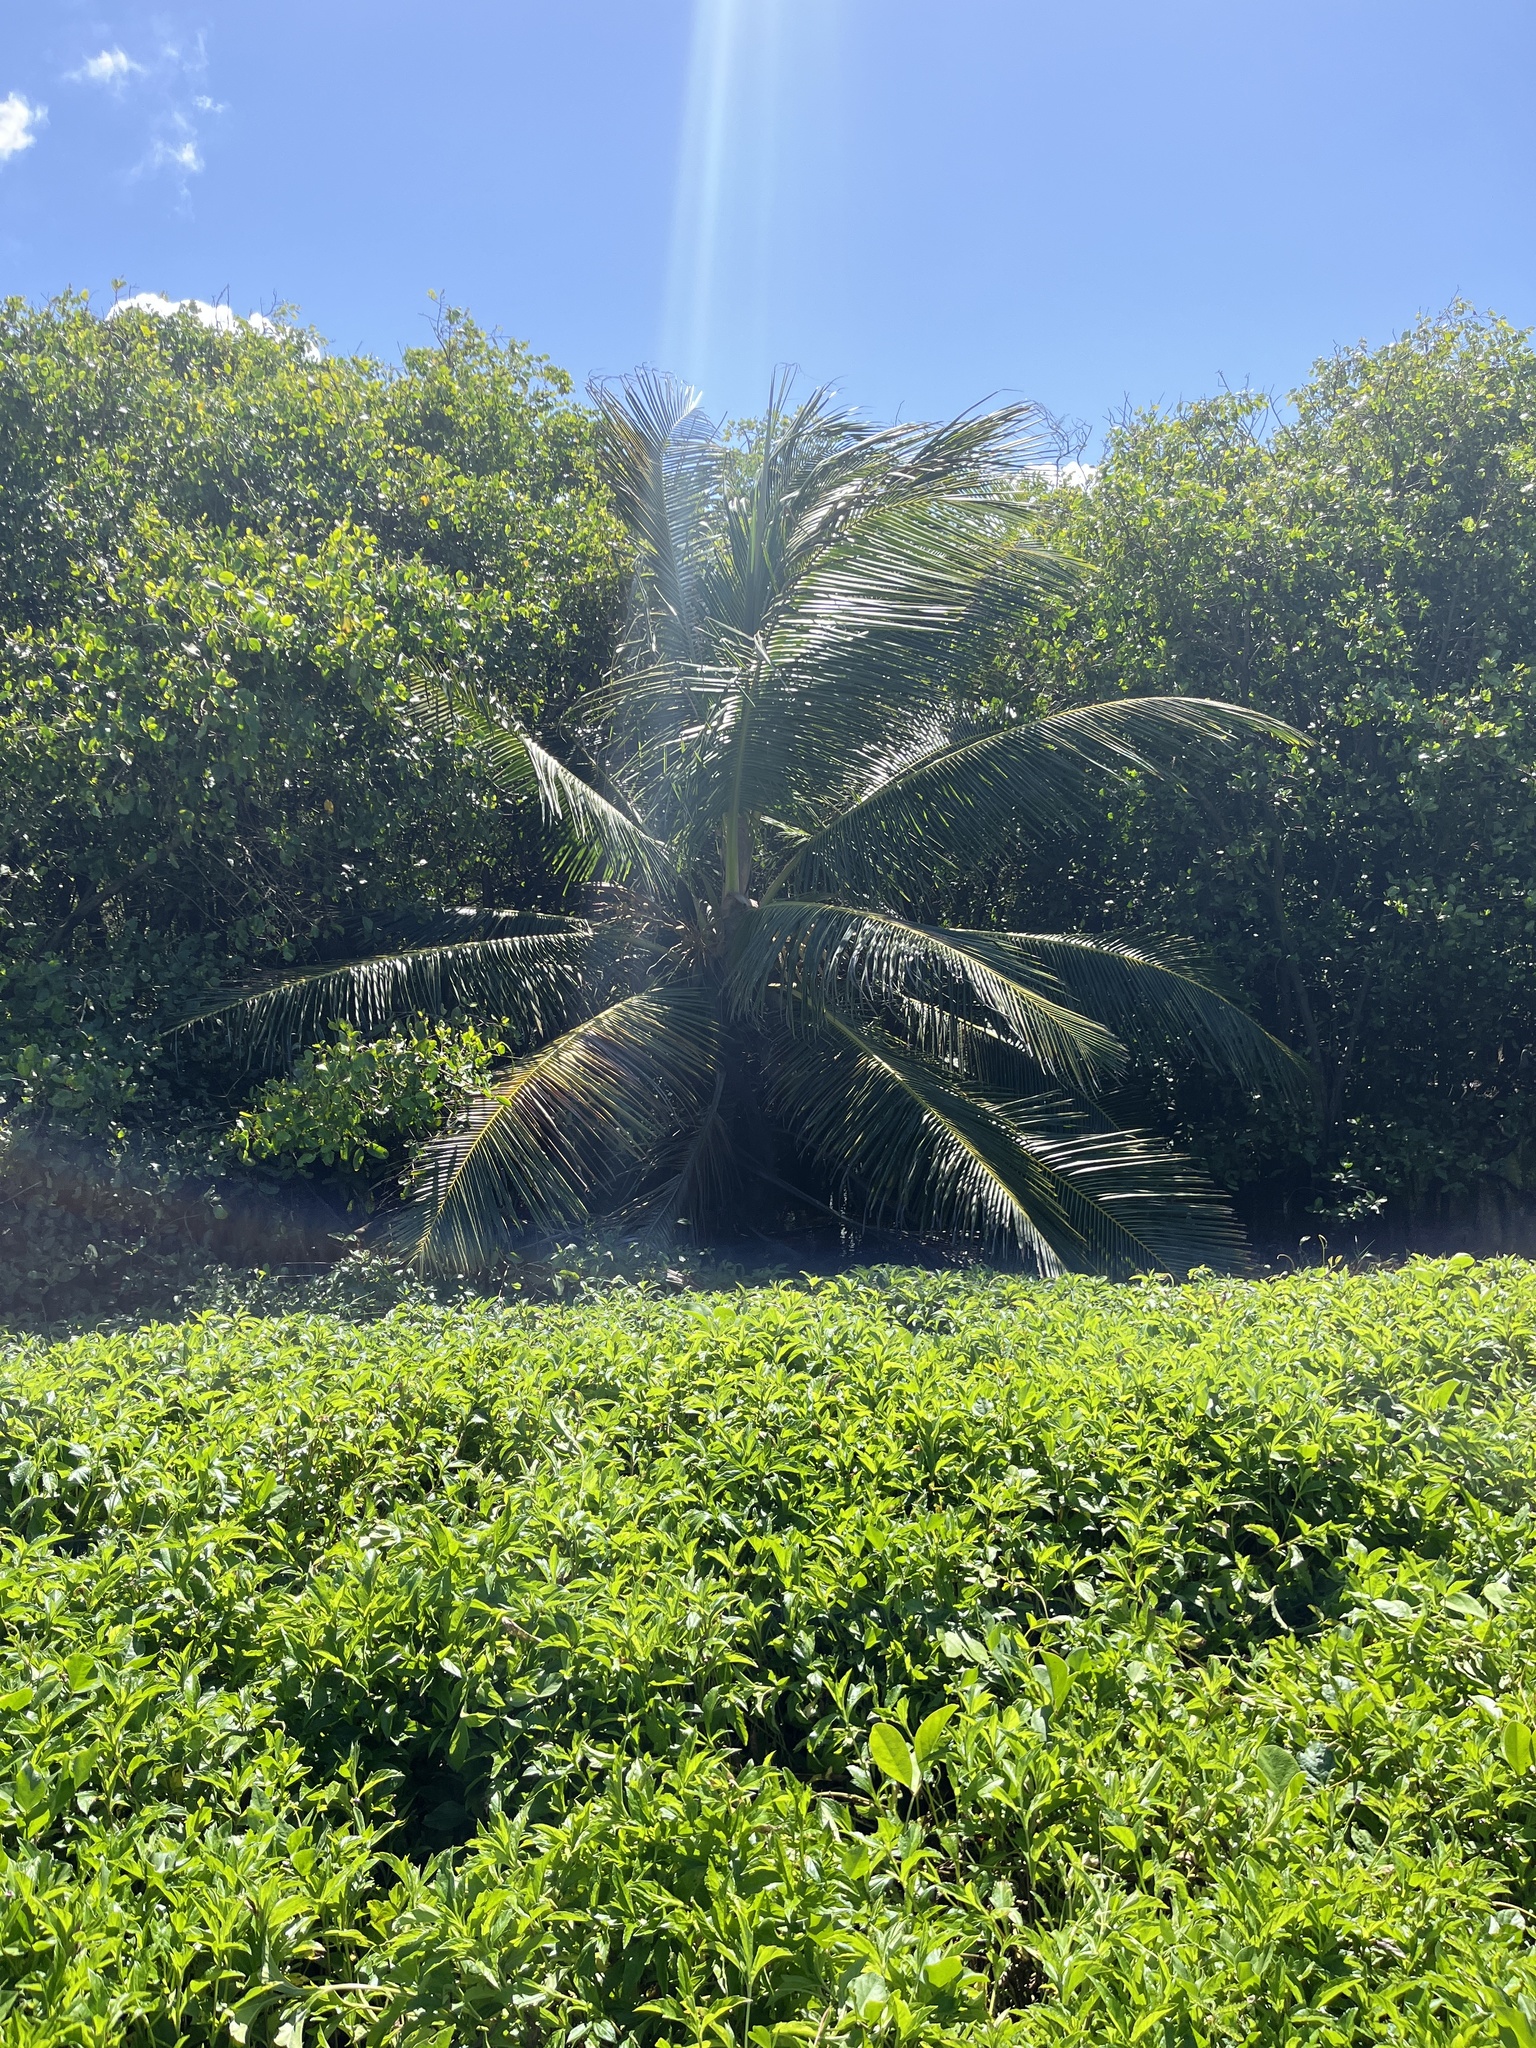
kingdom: Plantae
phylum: Tracheophyta
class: Liliopsida
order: Arecales
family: Arecaceae
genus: Cocos
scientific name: Cocos nucifera
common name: Coconut palm
